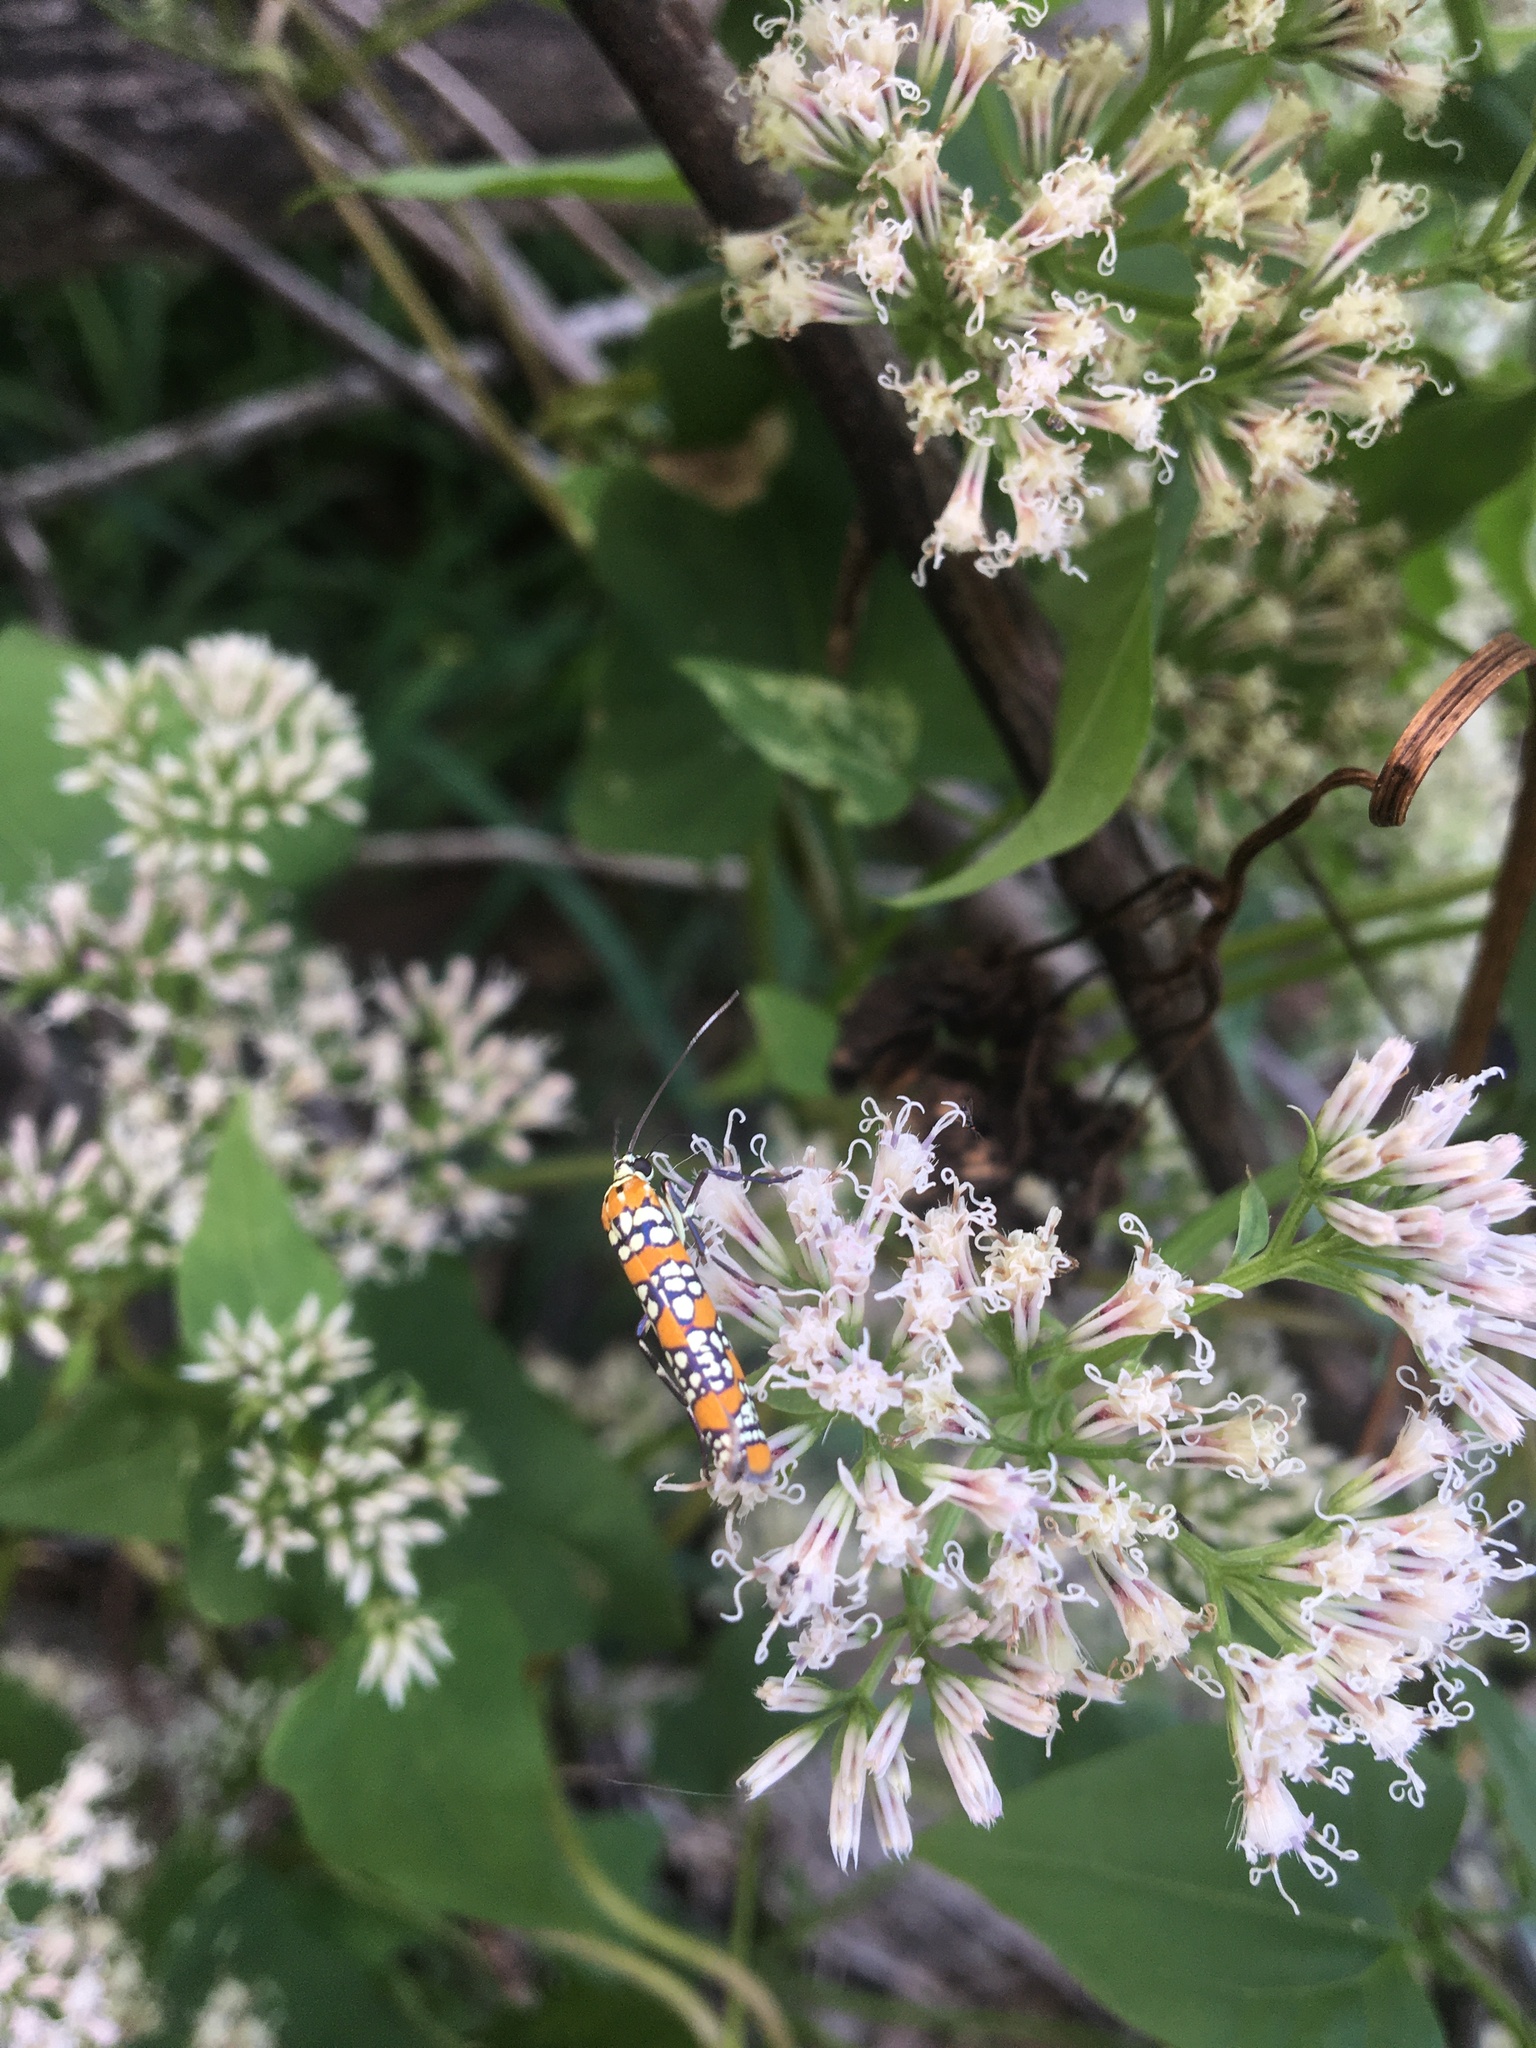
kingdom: Animalia
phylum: Arthropoda
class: Insecta
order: Lepidoptera
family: Attevidae
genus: Atteva
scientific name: Atteva punctella
